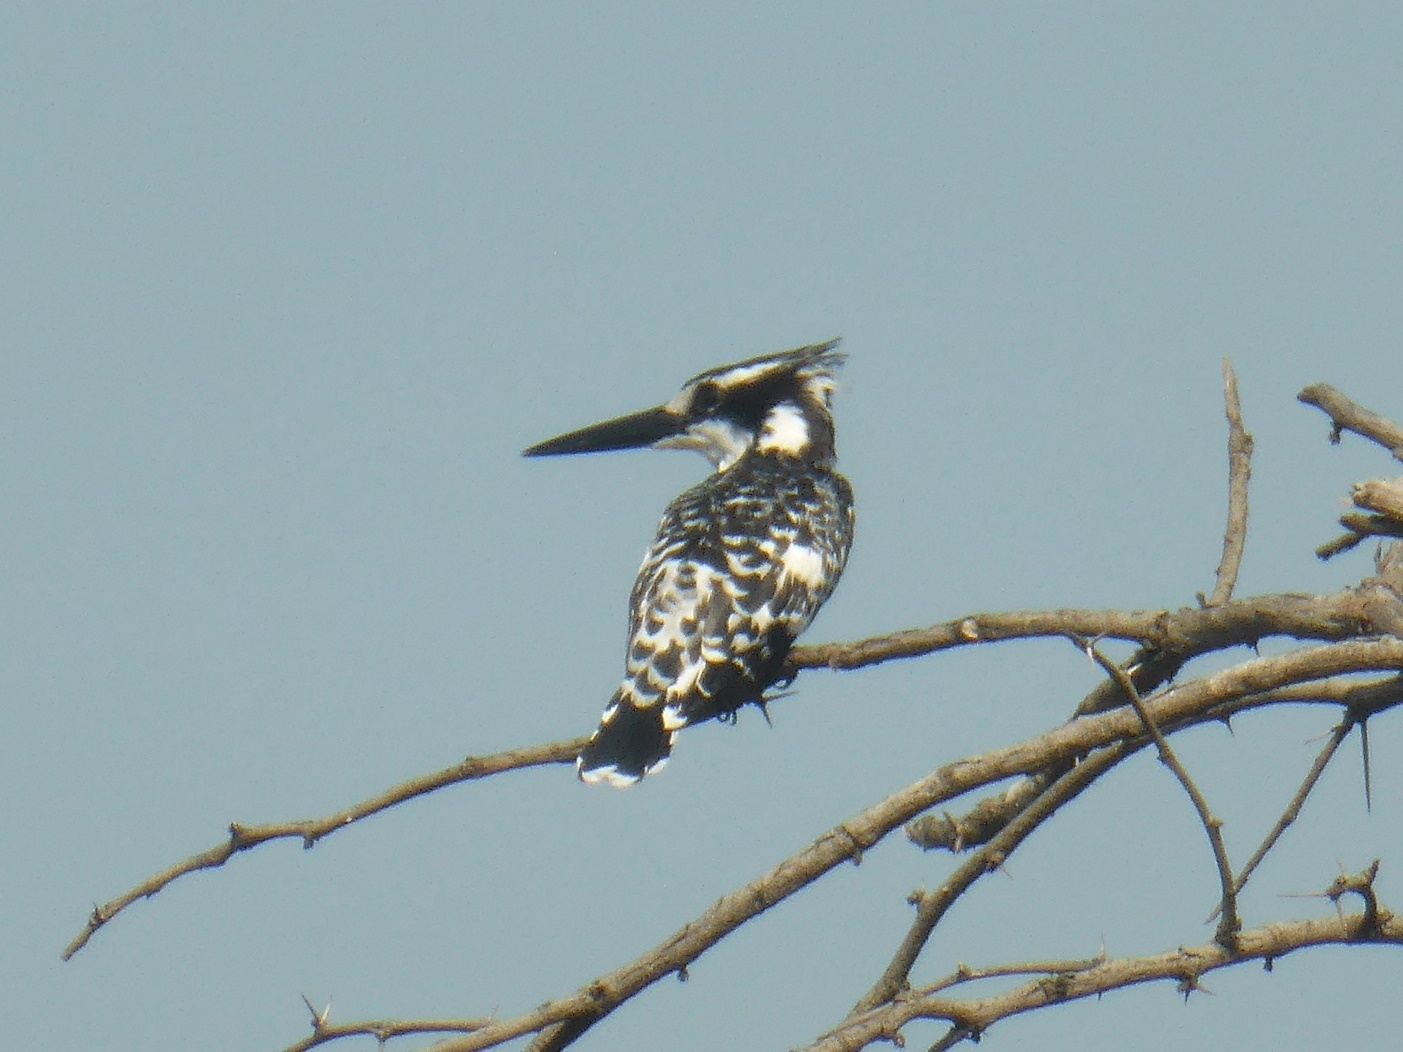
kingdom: Animalia
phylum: Chordata
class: Aves
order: Coraciiformes
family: Alcedinidae
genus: Ceryle
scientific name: Ceryle rudis
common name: Pied kingfisher
